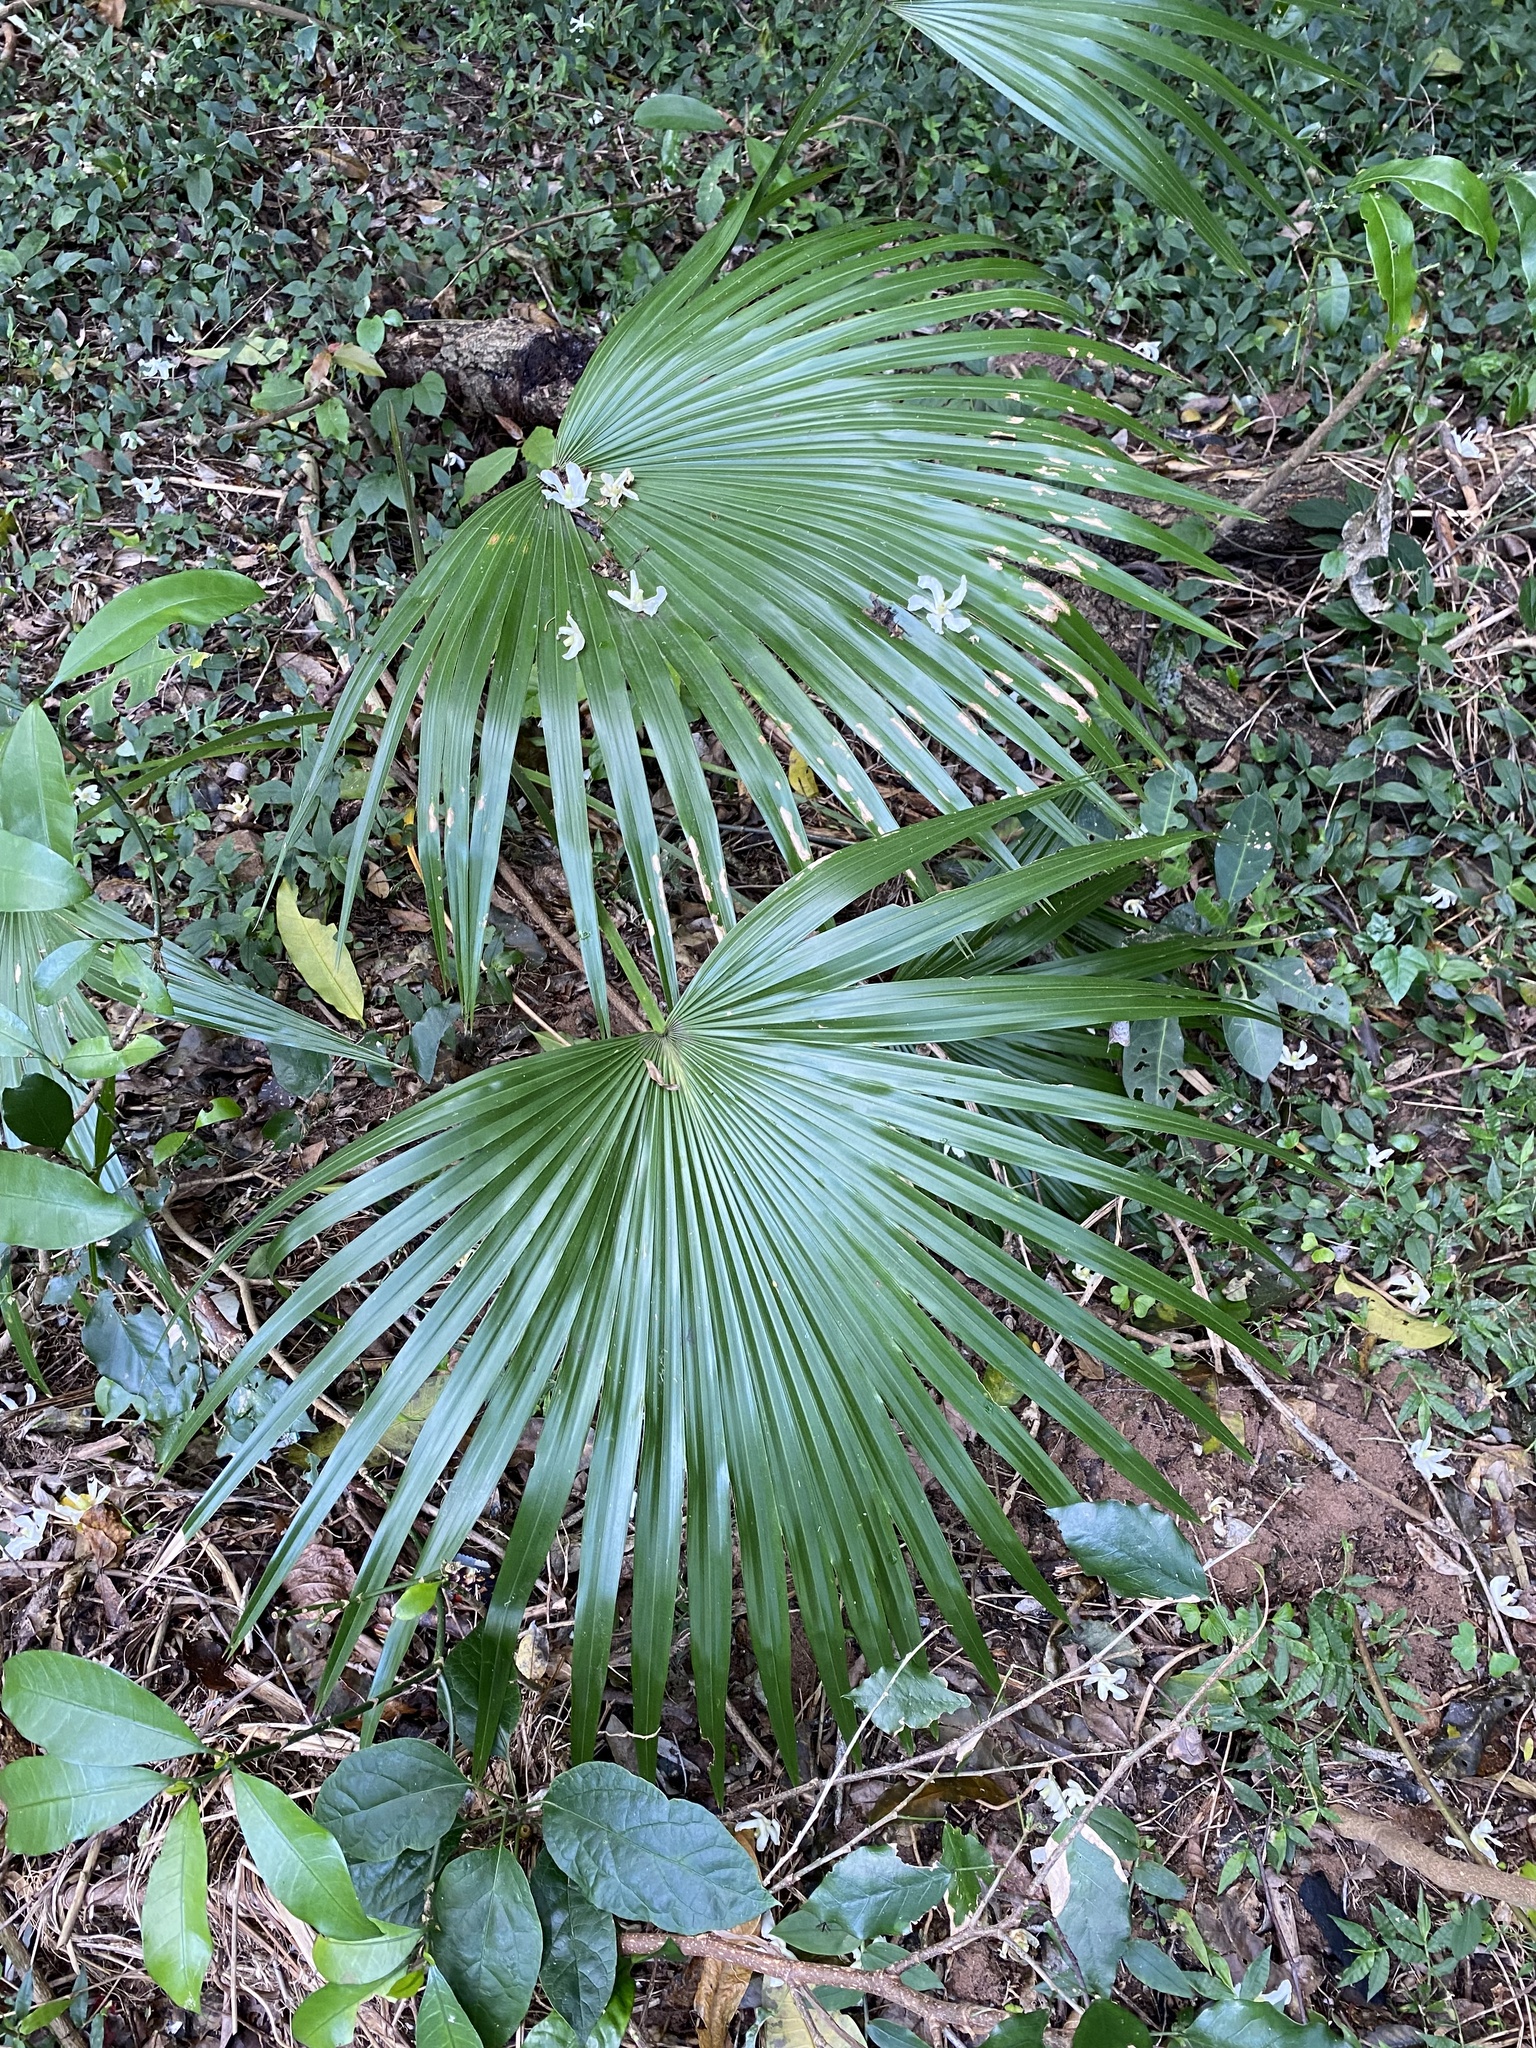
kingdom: Plantae
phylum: Tracheophyta
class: Liliopsida
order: Arecales
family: Arecaceae
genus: Livistona
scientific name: Livistona chinensis
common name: Fountain palm
